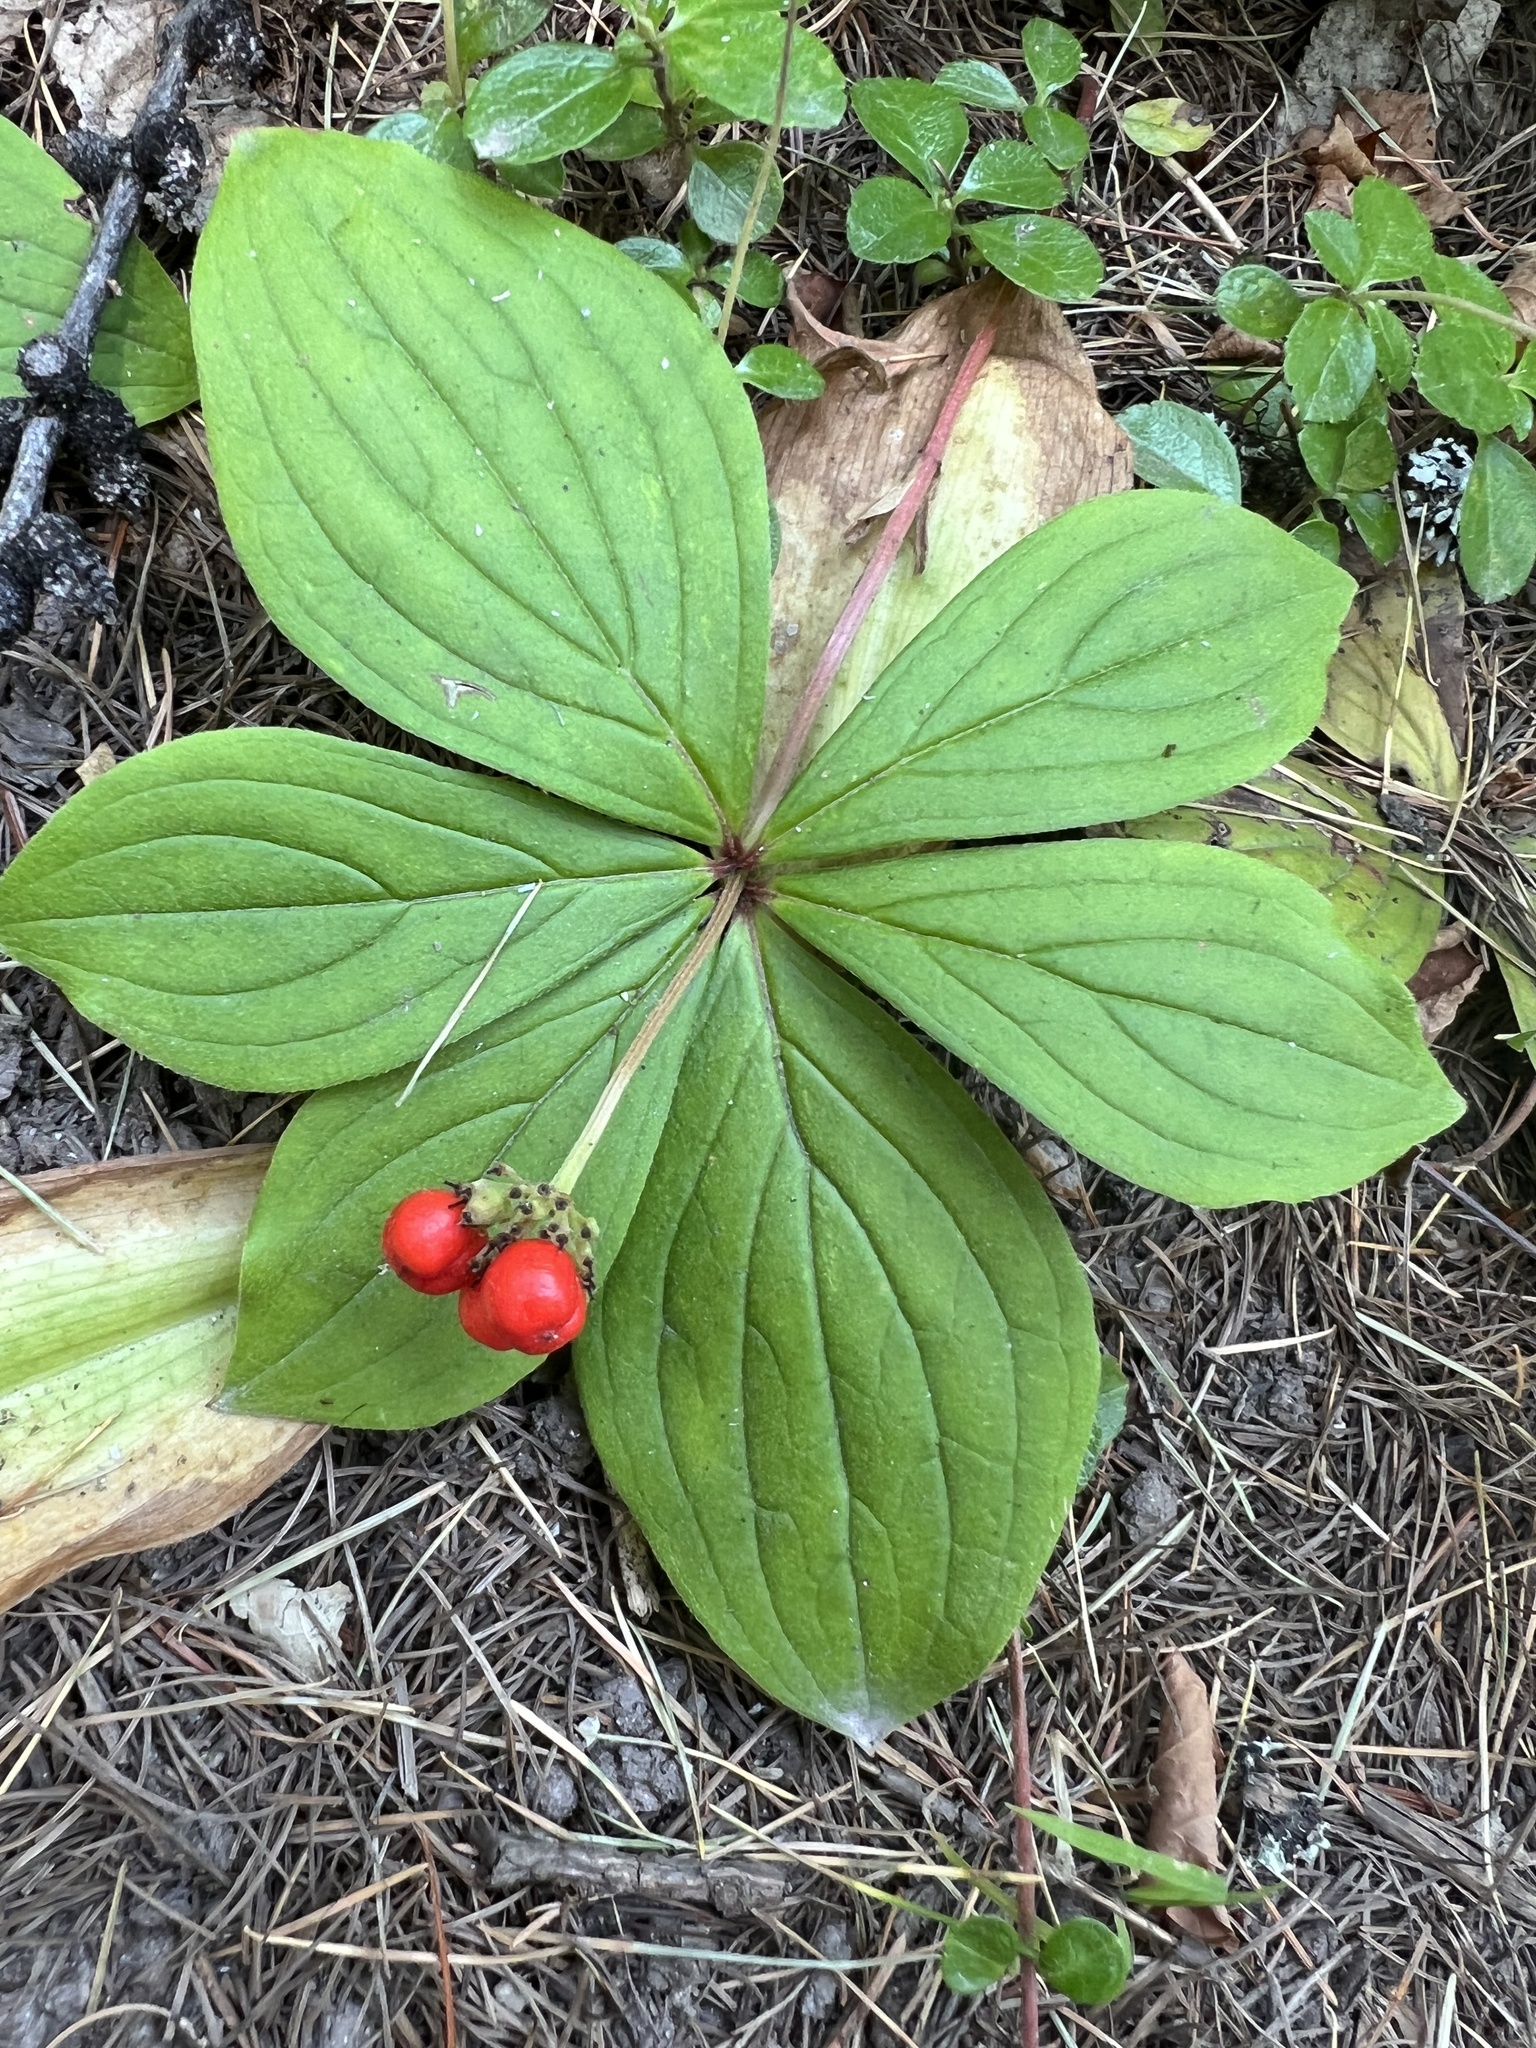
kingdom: Plantae
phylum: Tracheophyta
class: Magnoliopsida
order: Cornales
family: Cornaceae
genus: Cornus
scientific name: Cornus canadensis
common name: Creeping dogwood
